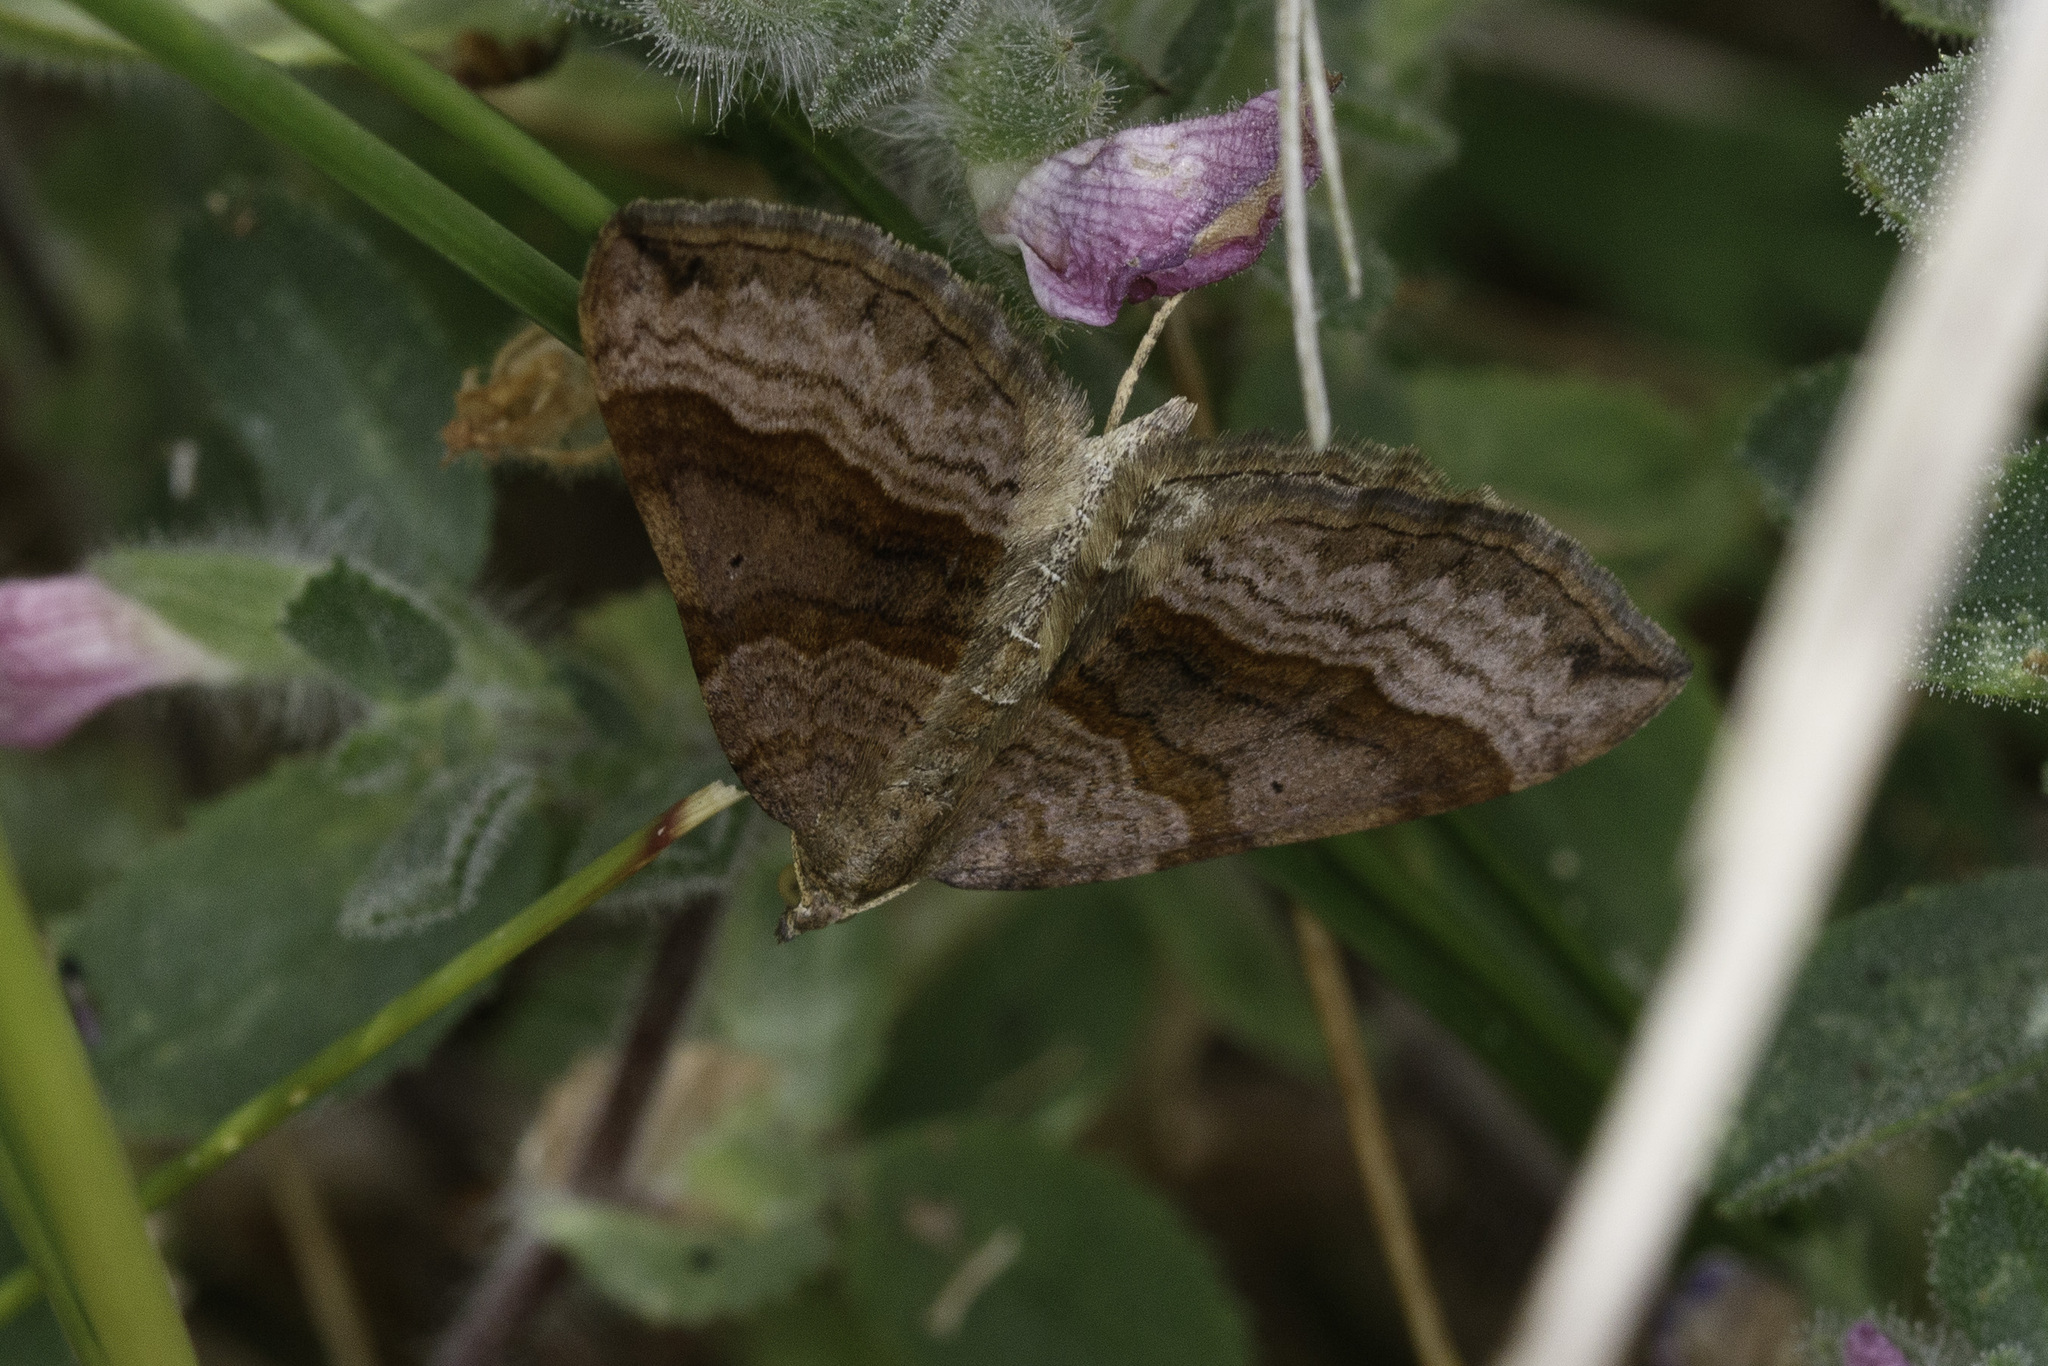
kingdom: Animalia
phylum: Arthropoda
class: Insecta
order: Lepidoptera
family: Geometridae
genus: Scotopteryx
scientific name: Scotopteryx chenopodiata
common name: Shaded broad-bar
